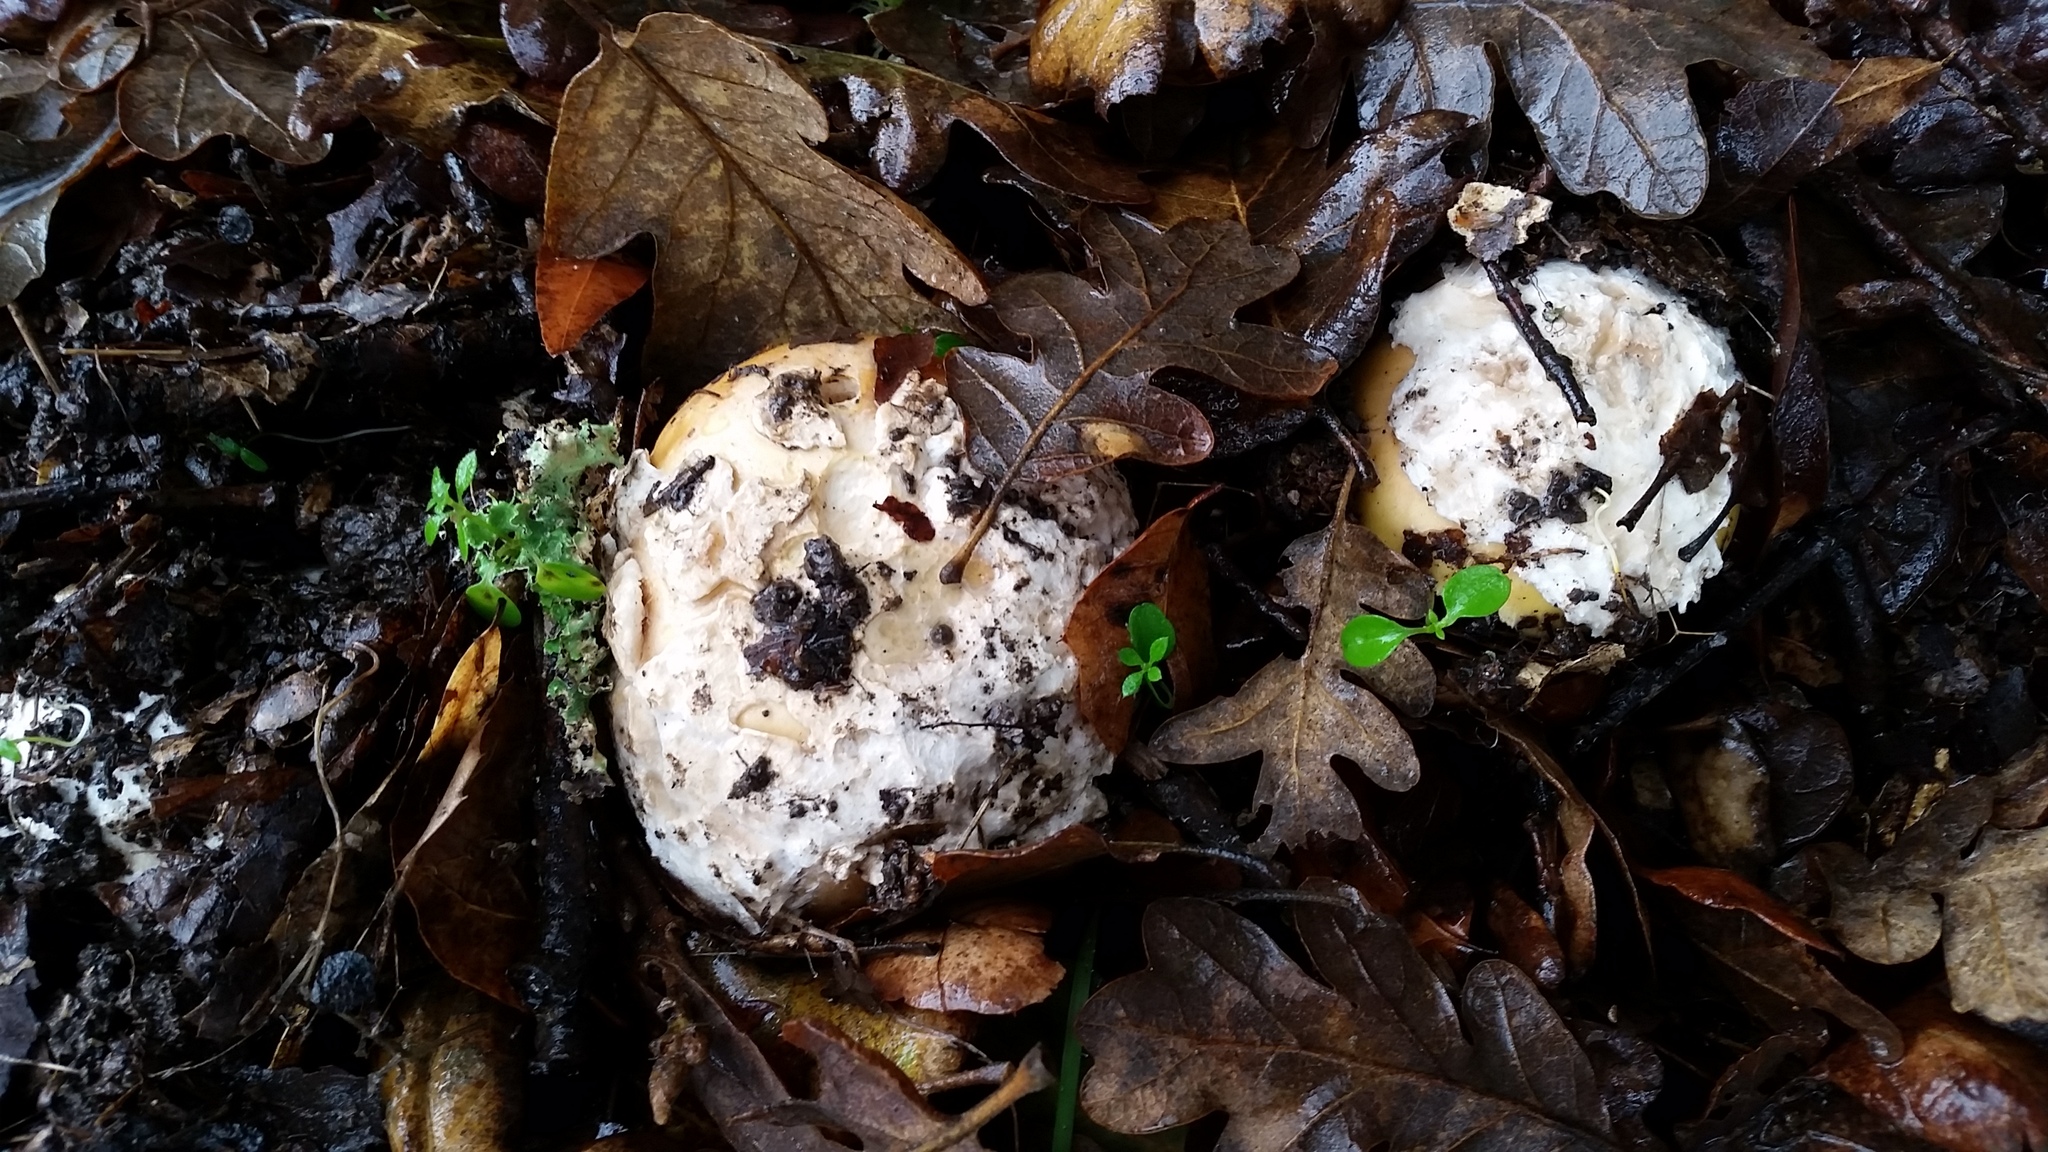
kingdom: Fungi
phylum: Basidiomycota
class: Agaricomycetes
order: Agaricales
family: Amanitaceae
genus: Amanita
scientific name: Amanita calyptroderma
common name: Coccora
